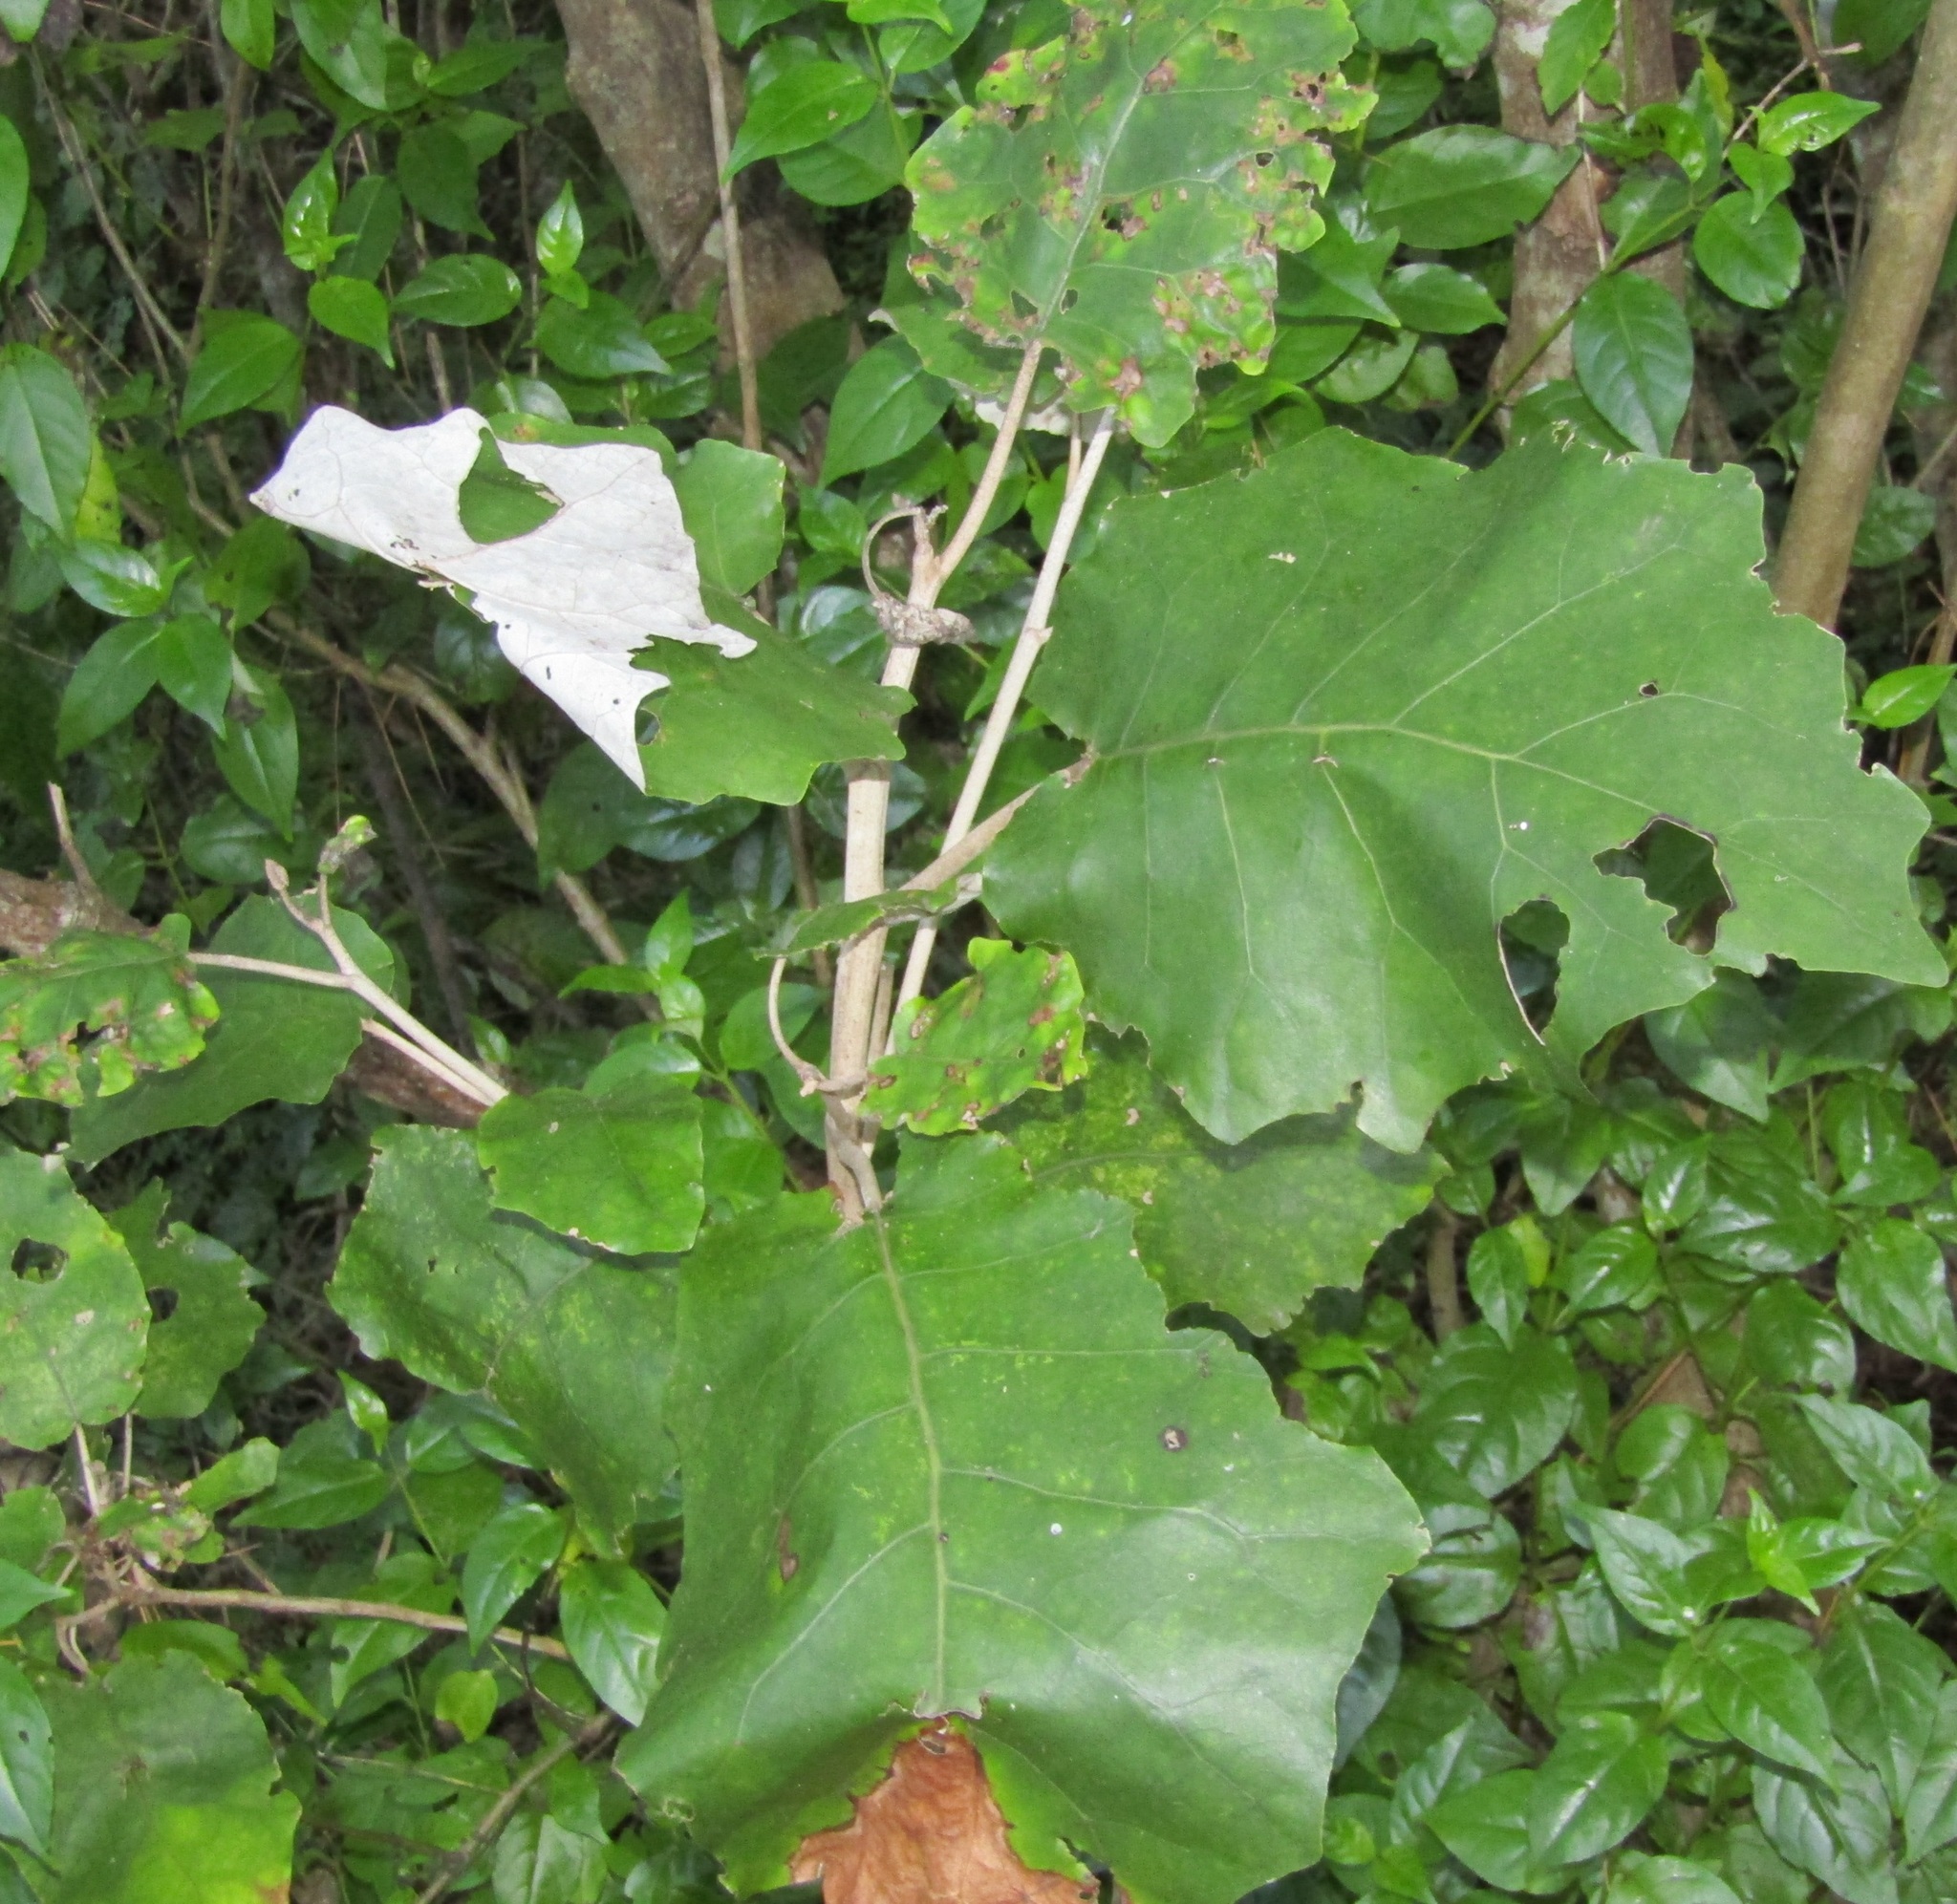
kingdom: Plantae
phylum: Tracheophyta
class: Magnoliopsida
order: Asterales
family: Asteraceae
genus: Brachyglottis
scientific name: Brachyglottis repanda
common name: Hedge ragwort
